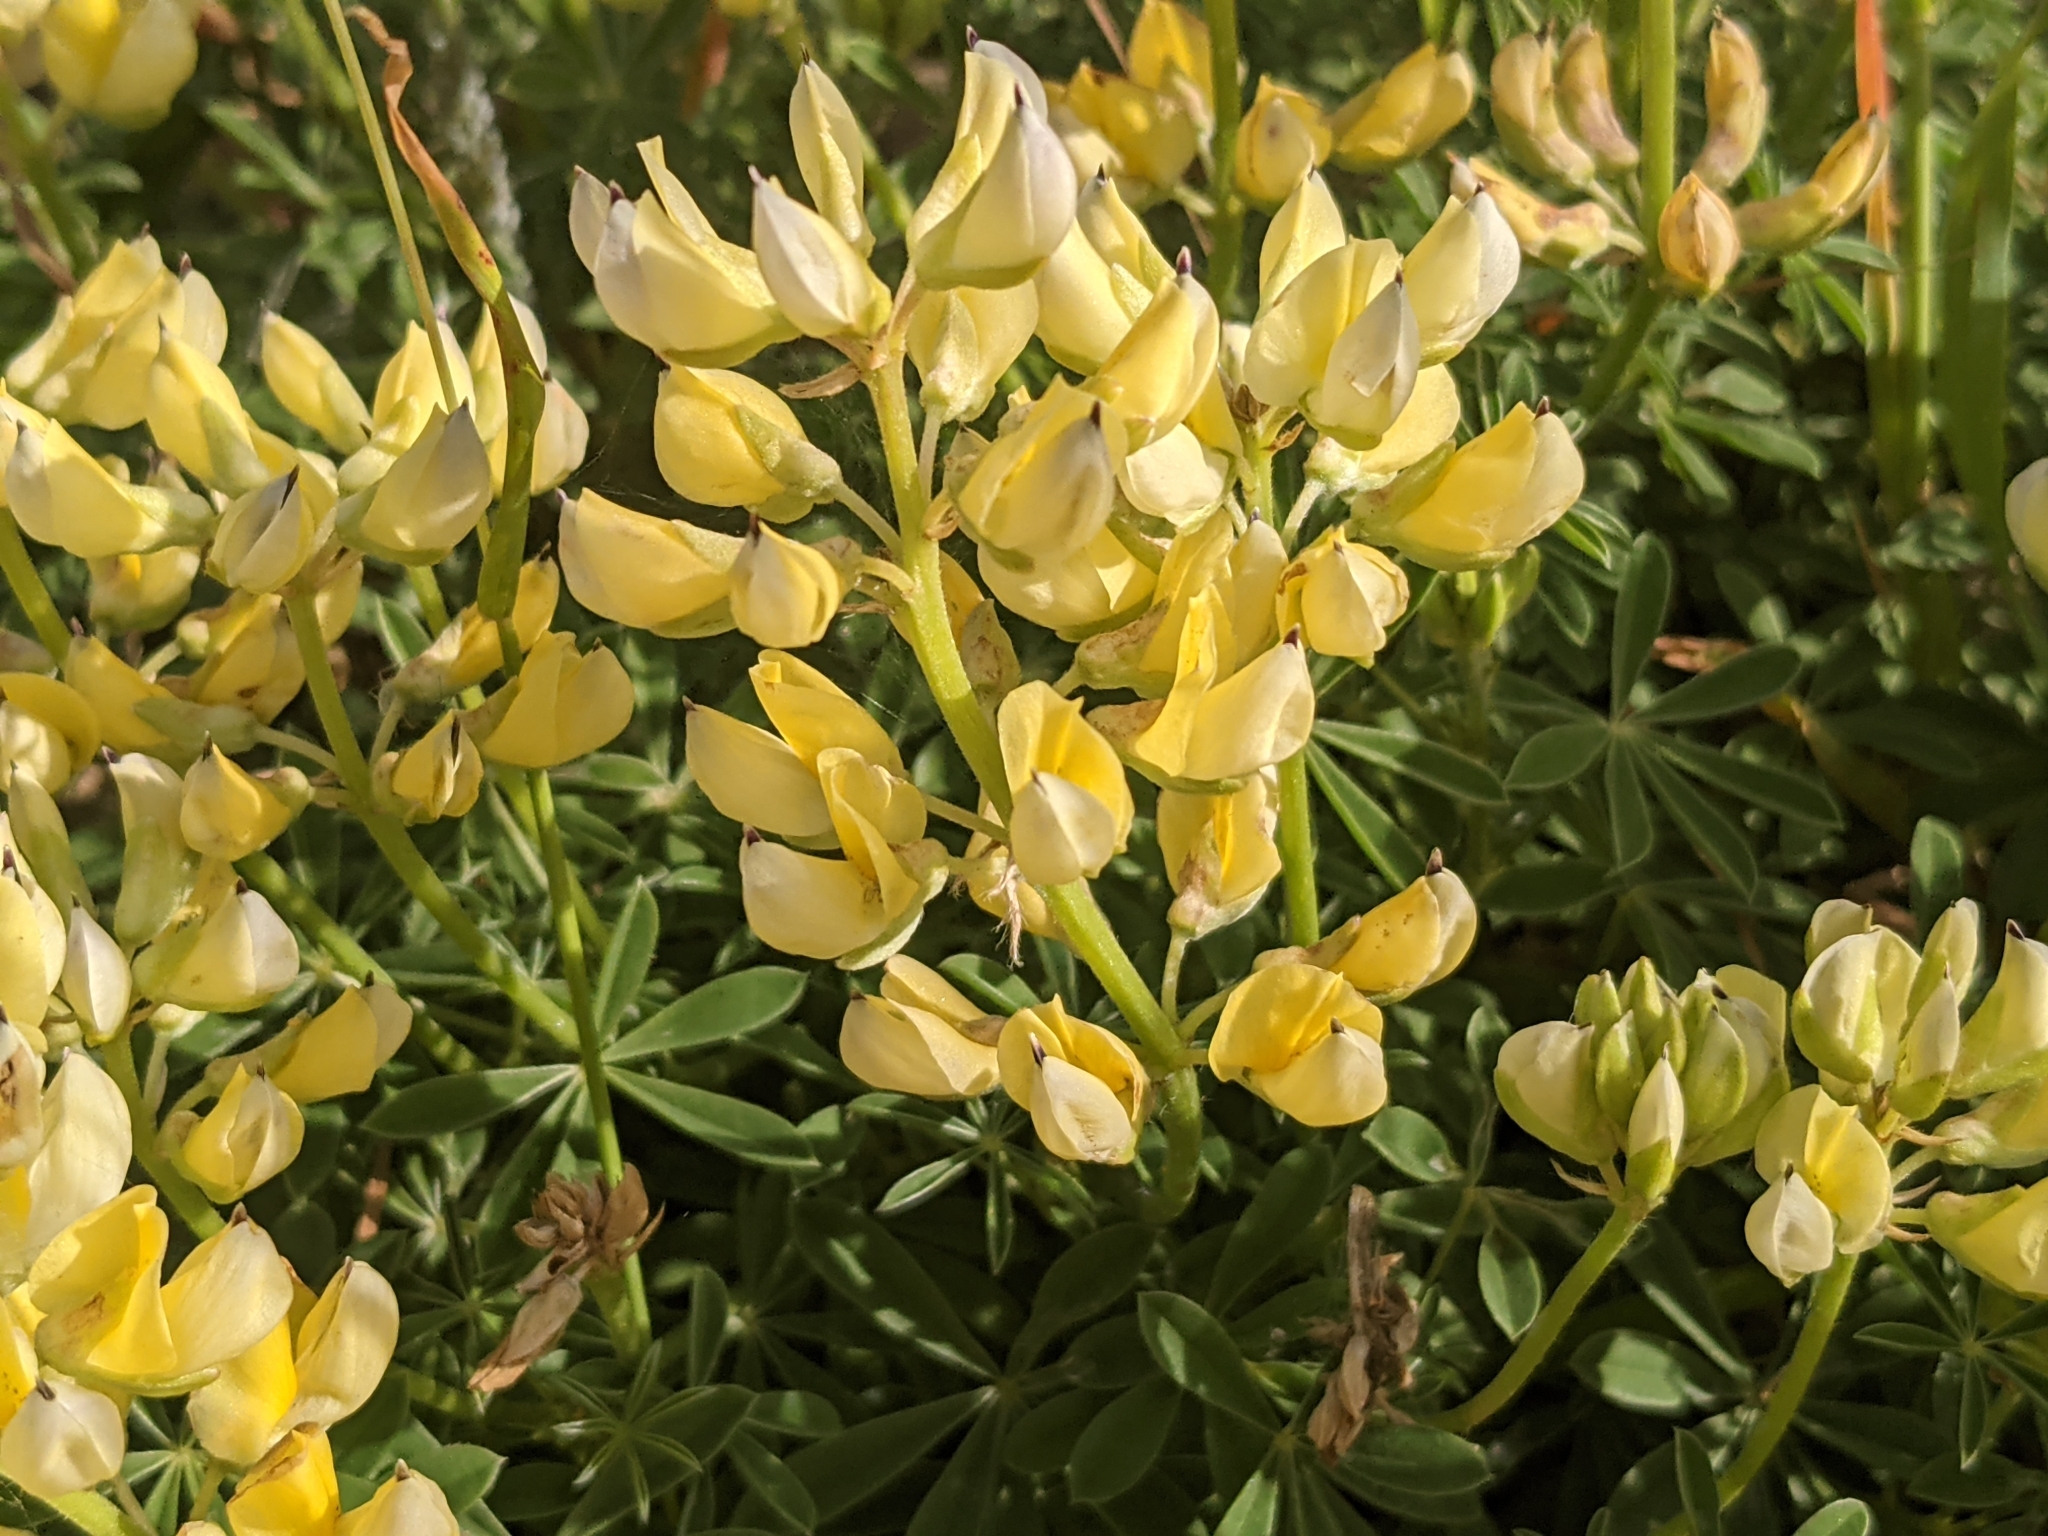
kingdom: Plantae
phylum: Tracheophyta
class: Magnoliopsida
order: Fabales
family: Fabaceae
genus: Lupinus
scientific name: Lupinus arboreus
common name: Yellow bush lupine
